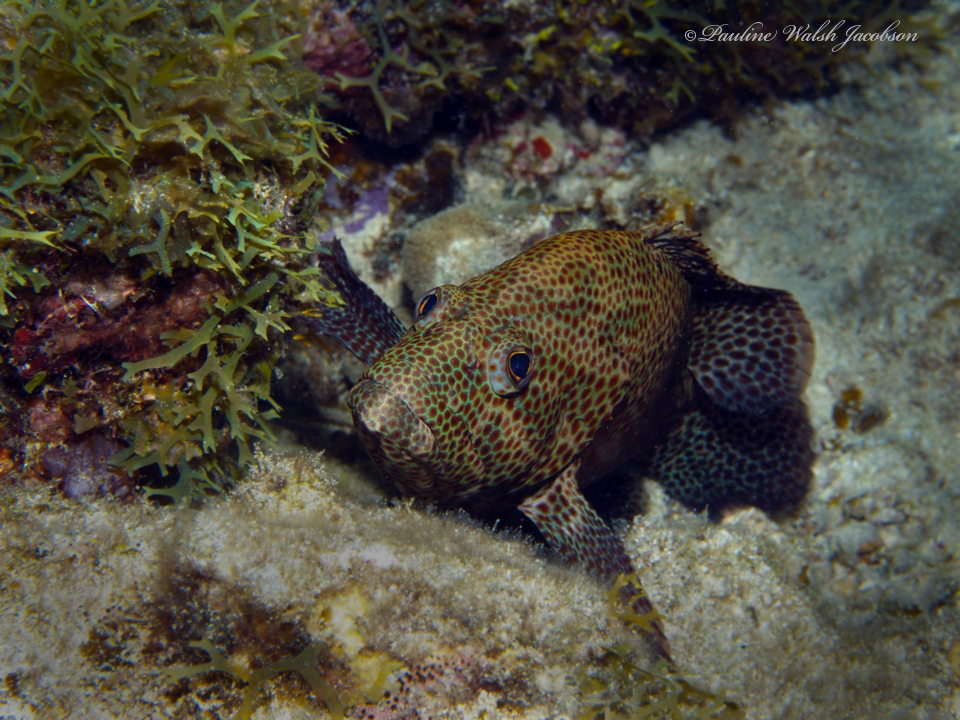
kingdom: Animalia
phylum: Chordata
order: Perciformes
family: Serranidae
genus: Cephalopholis
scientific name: Cephalopholis cruentata
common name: Graysby
